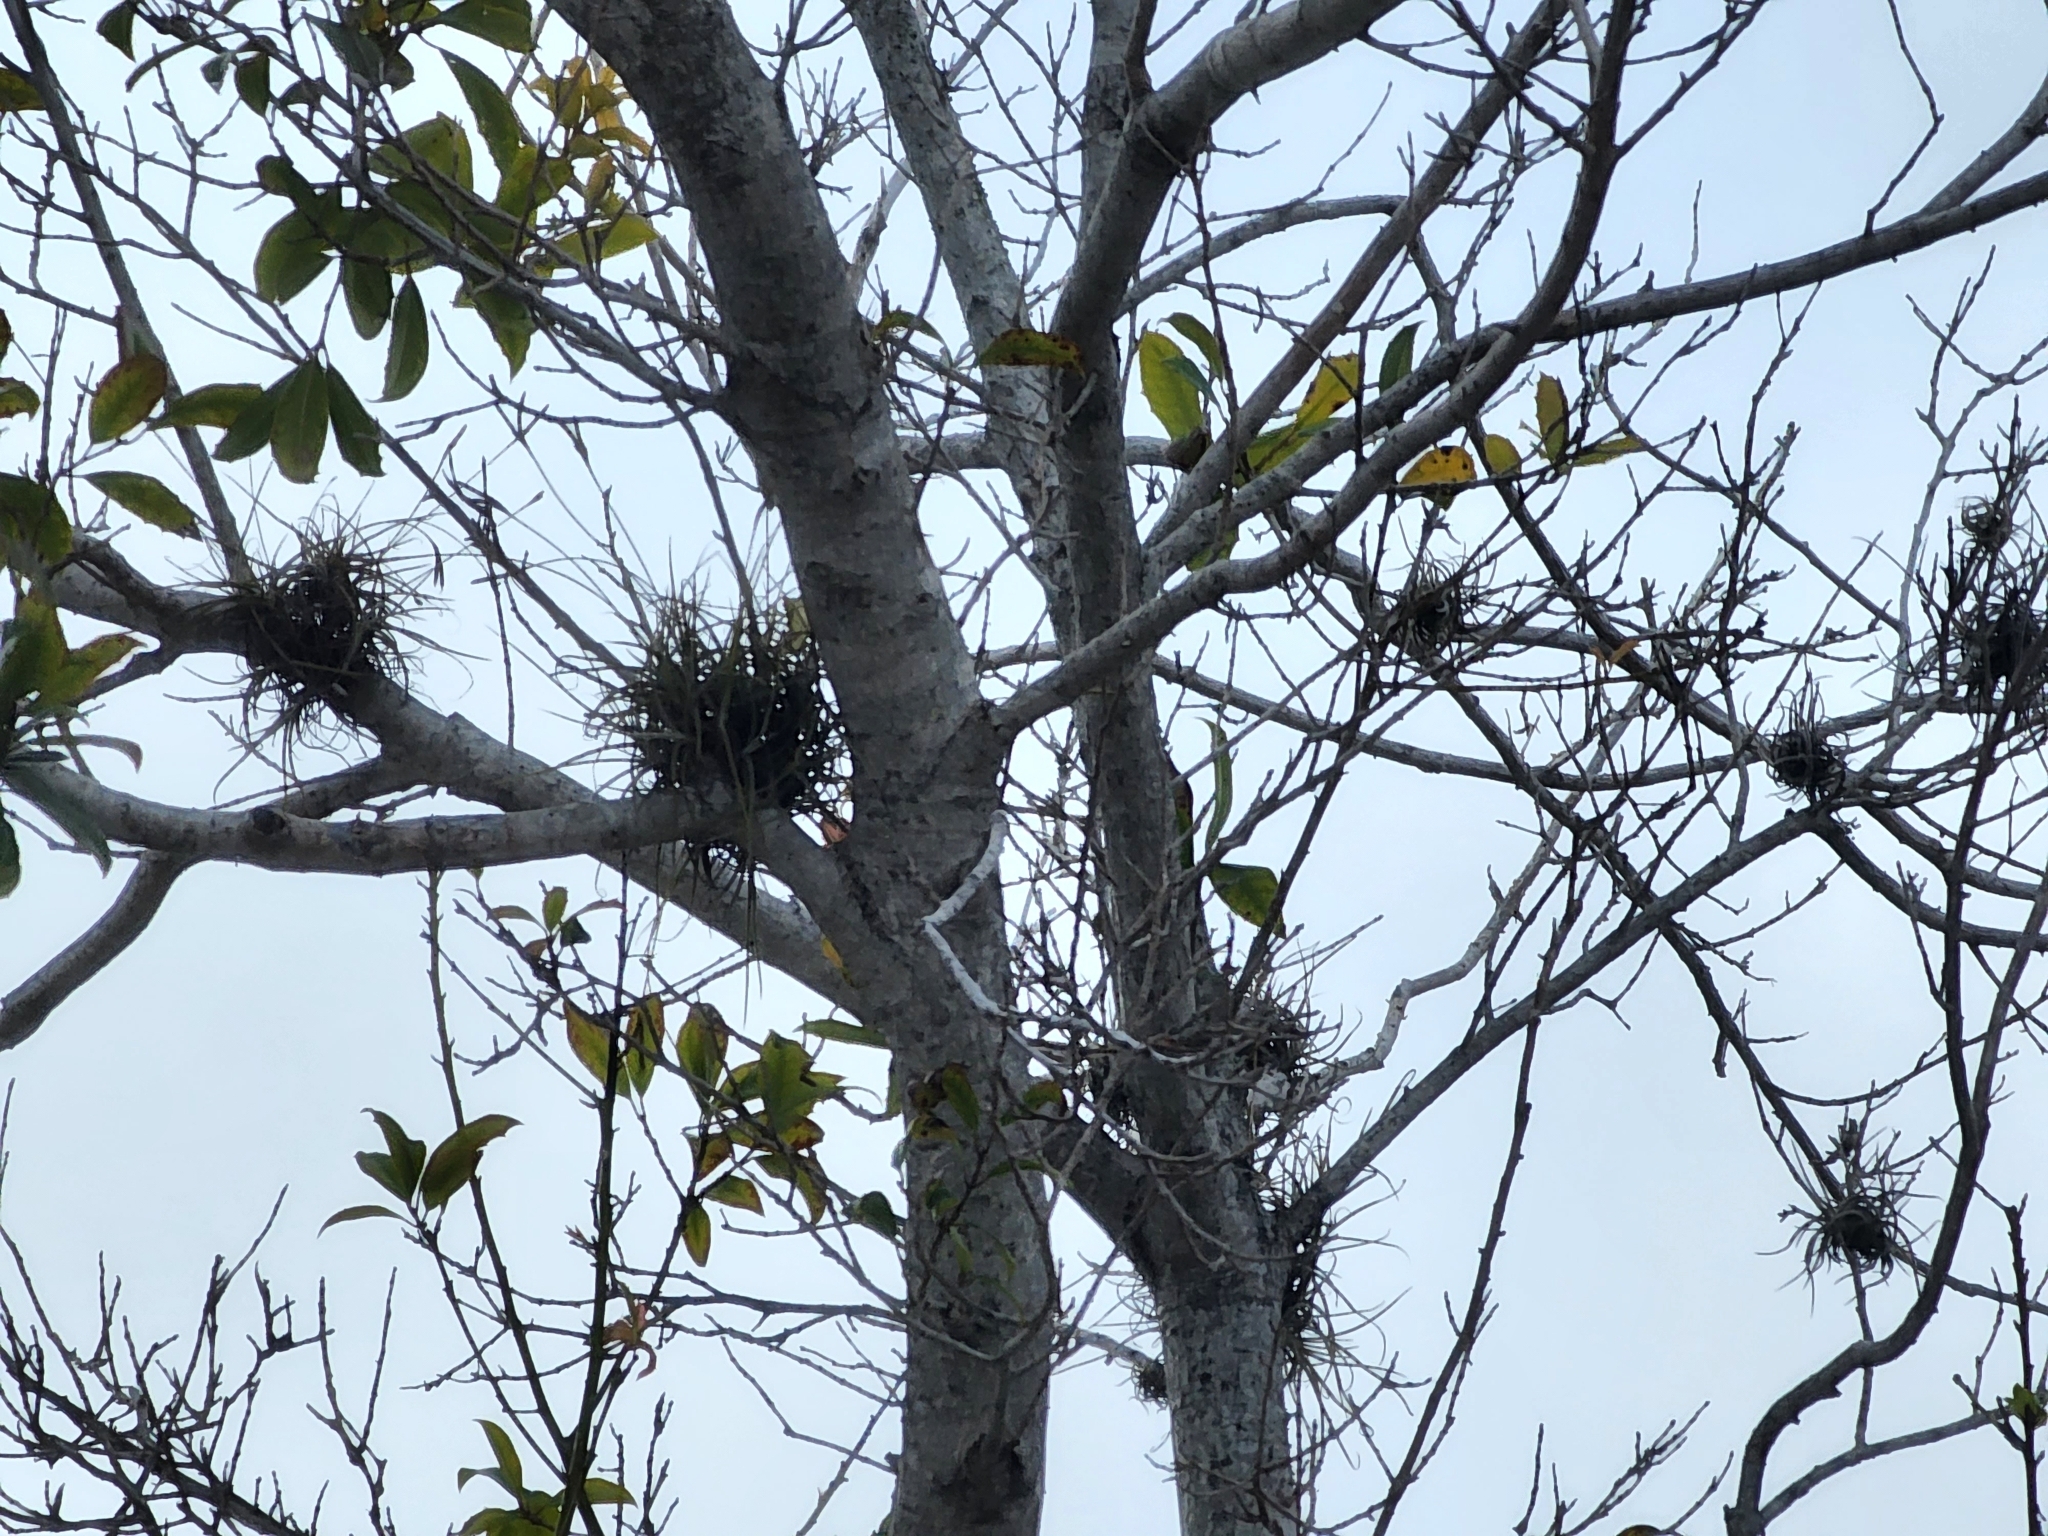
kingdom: Plantae
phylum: Tracheophyta
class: Liliopsida
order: Poales
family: Bromeliaceae
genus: Tillandsia
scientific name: Tillandsia recurvata
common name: Small ballmoss
